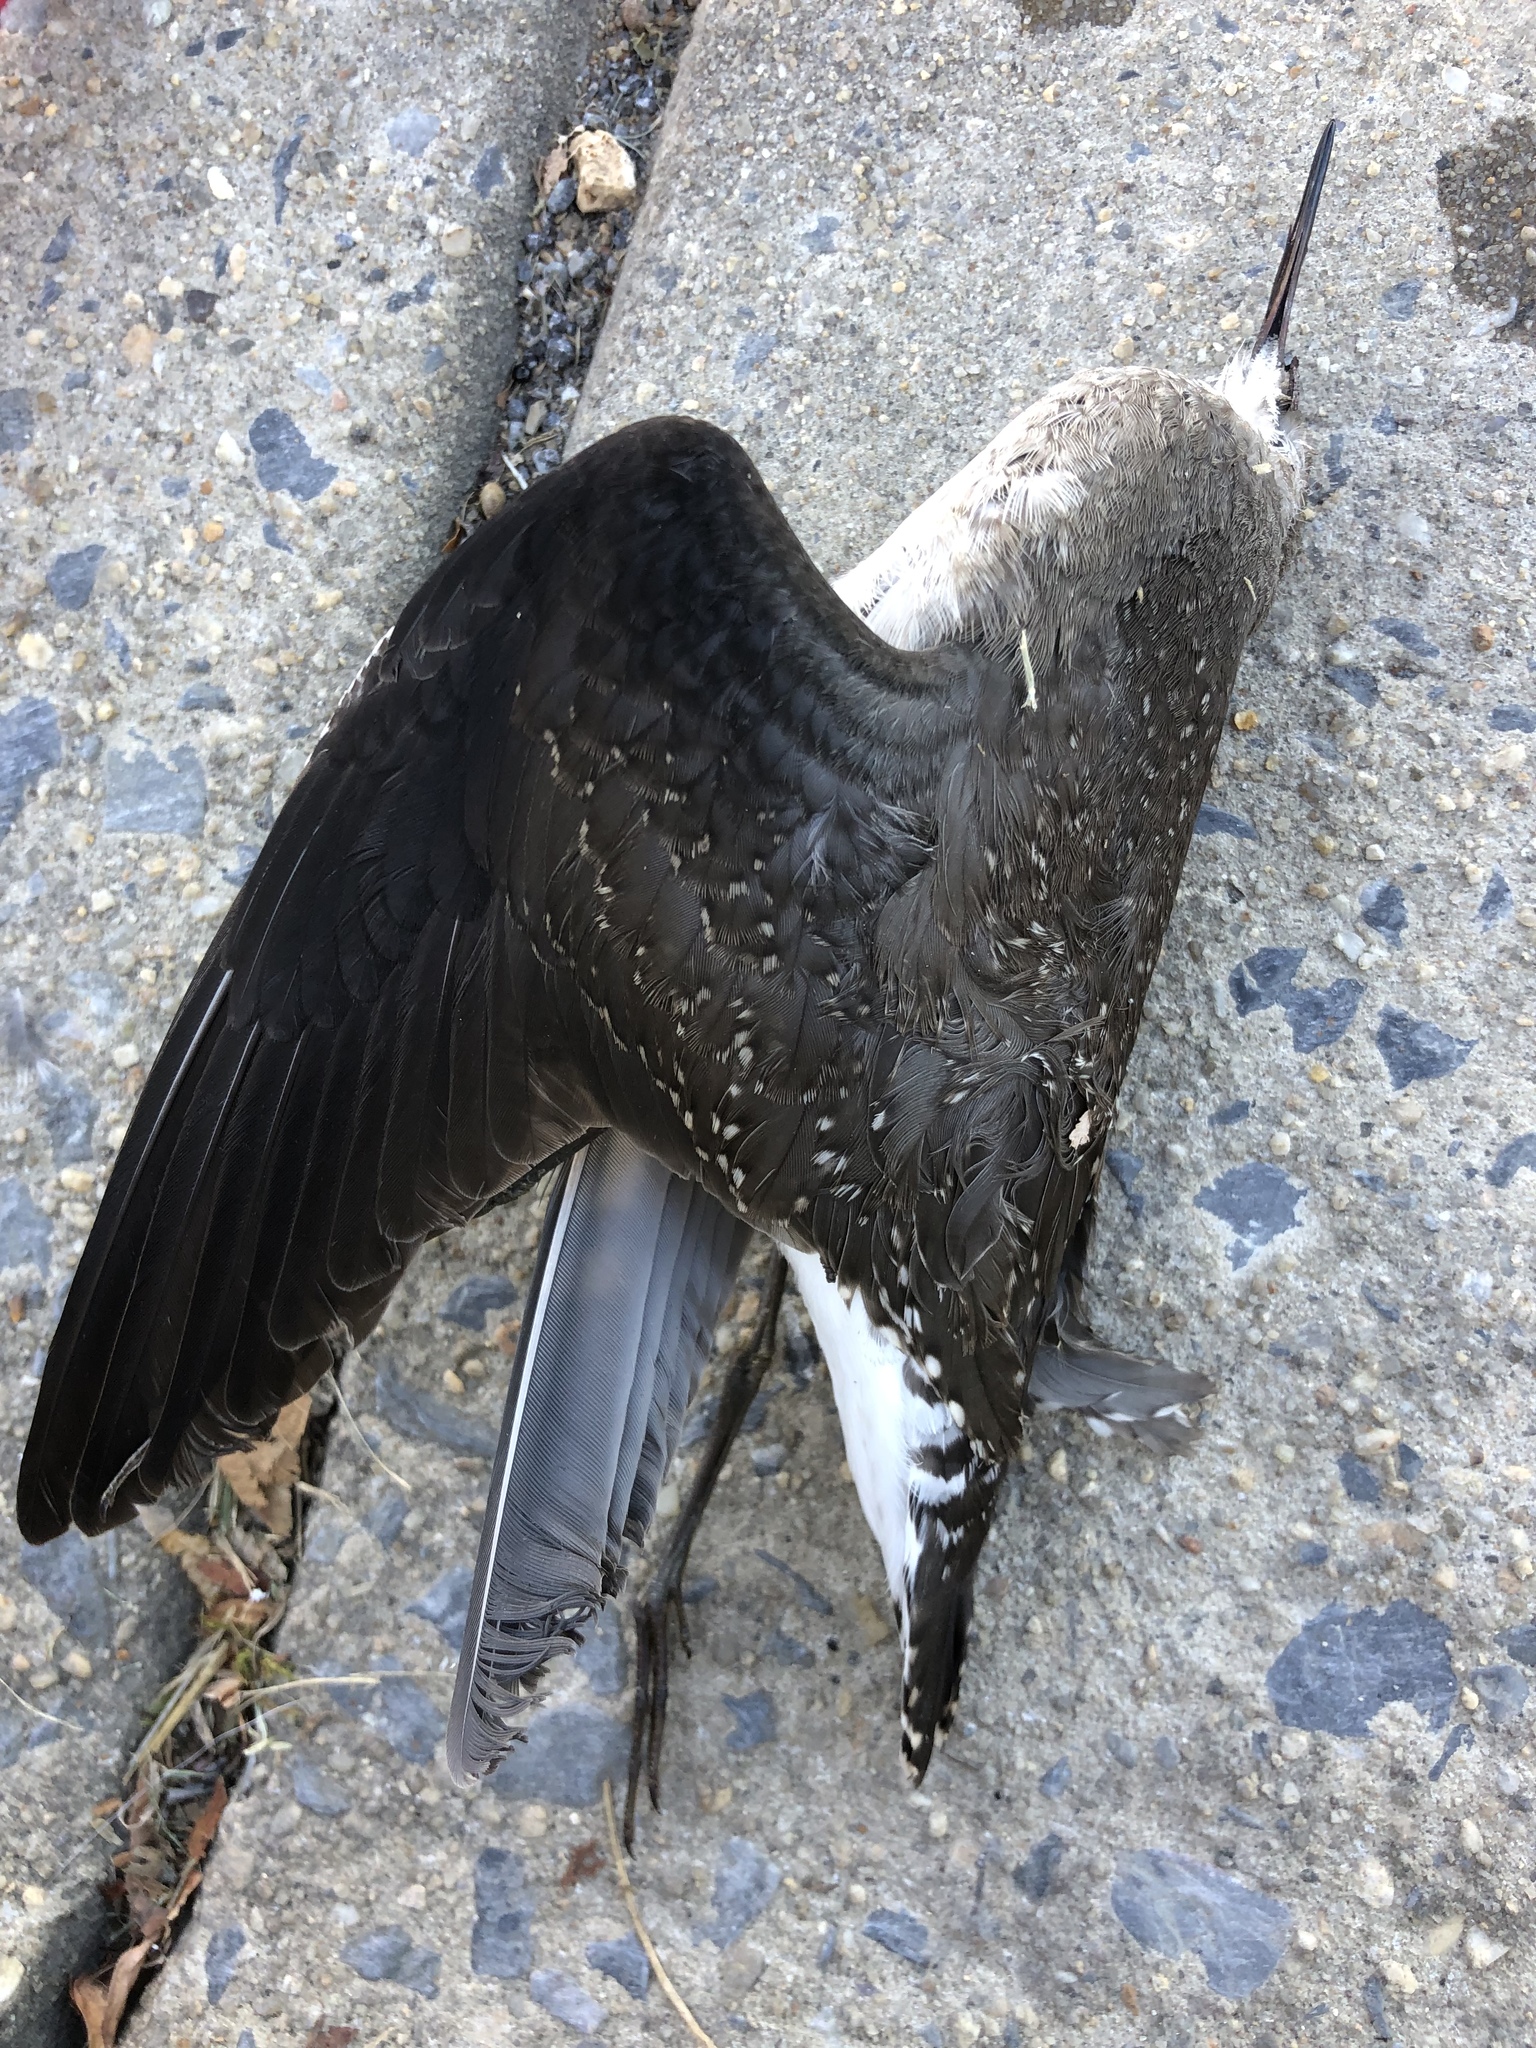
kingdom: Animalia
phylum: Chordata
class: Aves
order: Charadriiformes
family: Scolopacidae
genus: Tringa
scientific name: Tringa solitaria
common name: Solitary sandpiper
